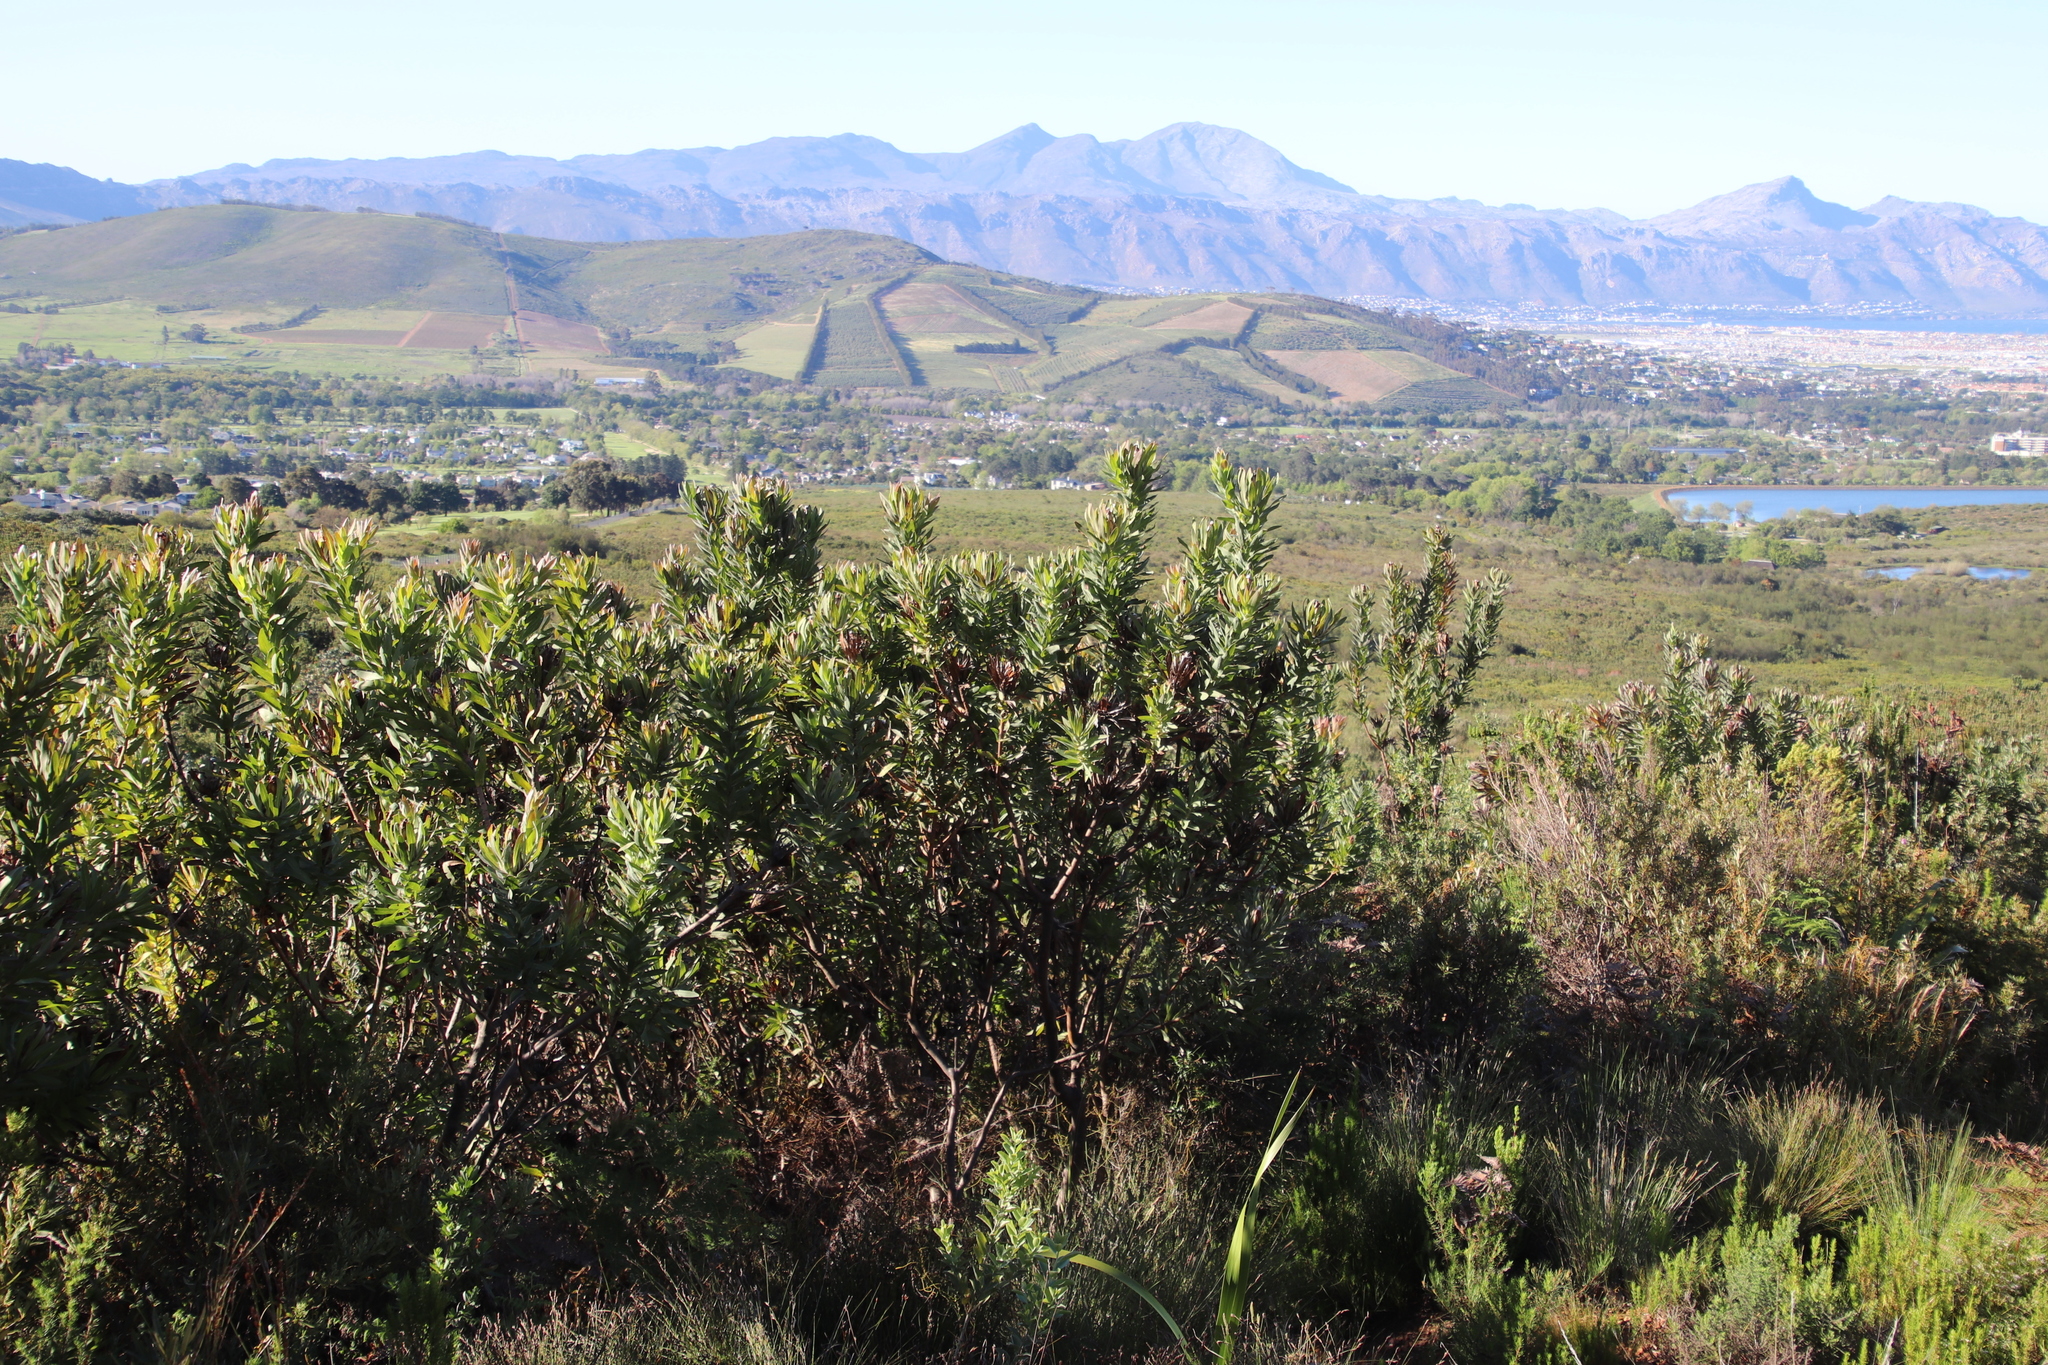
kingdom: Plantae
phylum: Tracheophyta
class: Magnoliopsida
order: Proteales
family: Proteaceae
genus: Protea
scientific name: Protea coronata
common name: Green sugarbush
